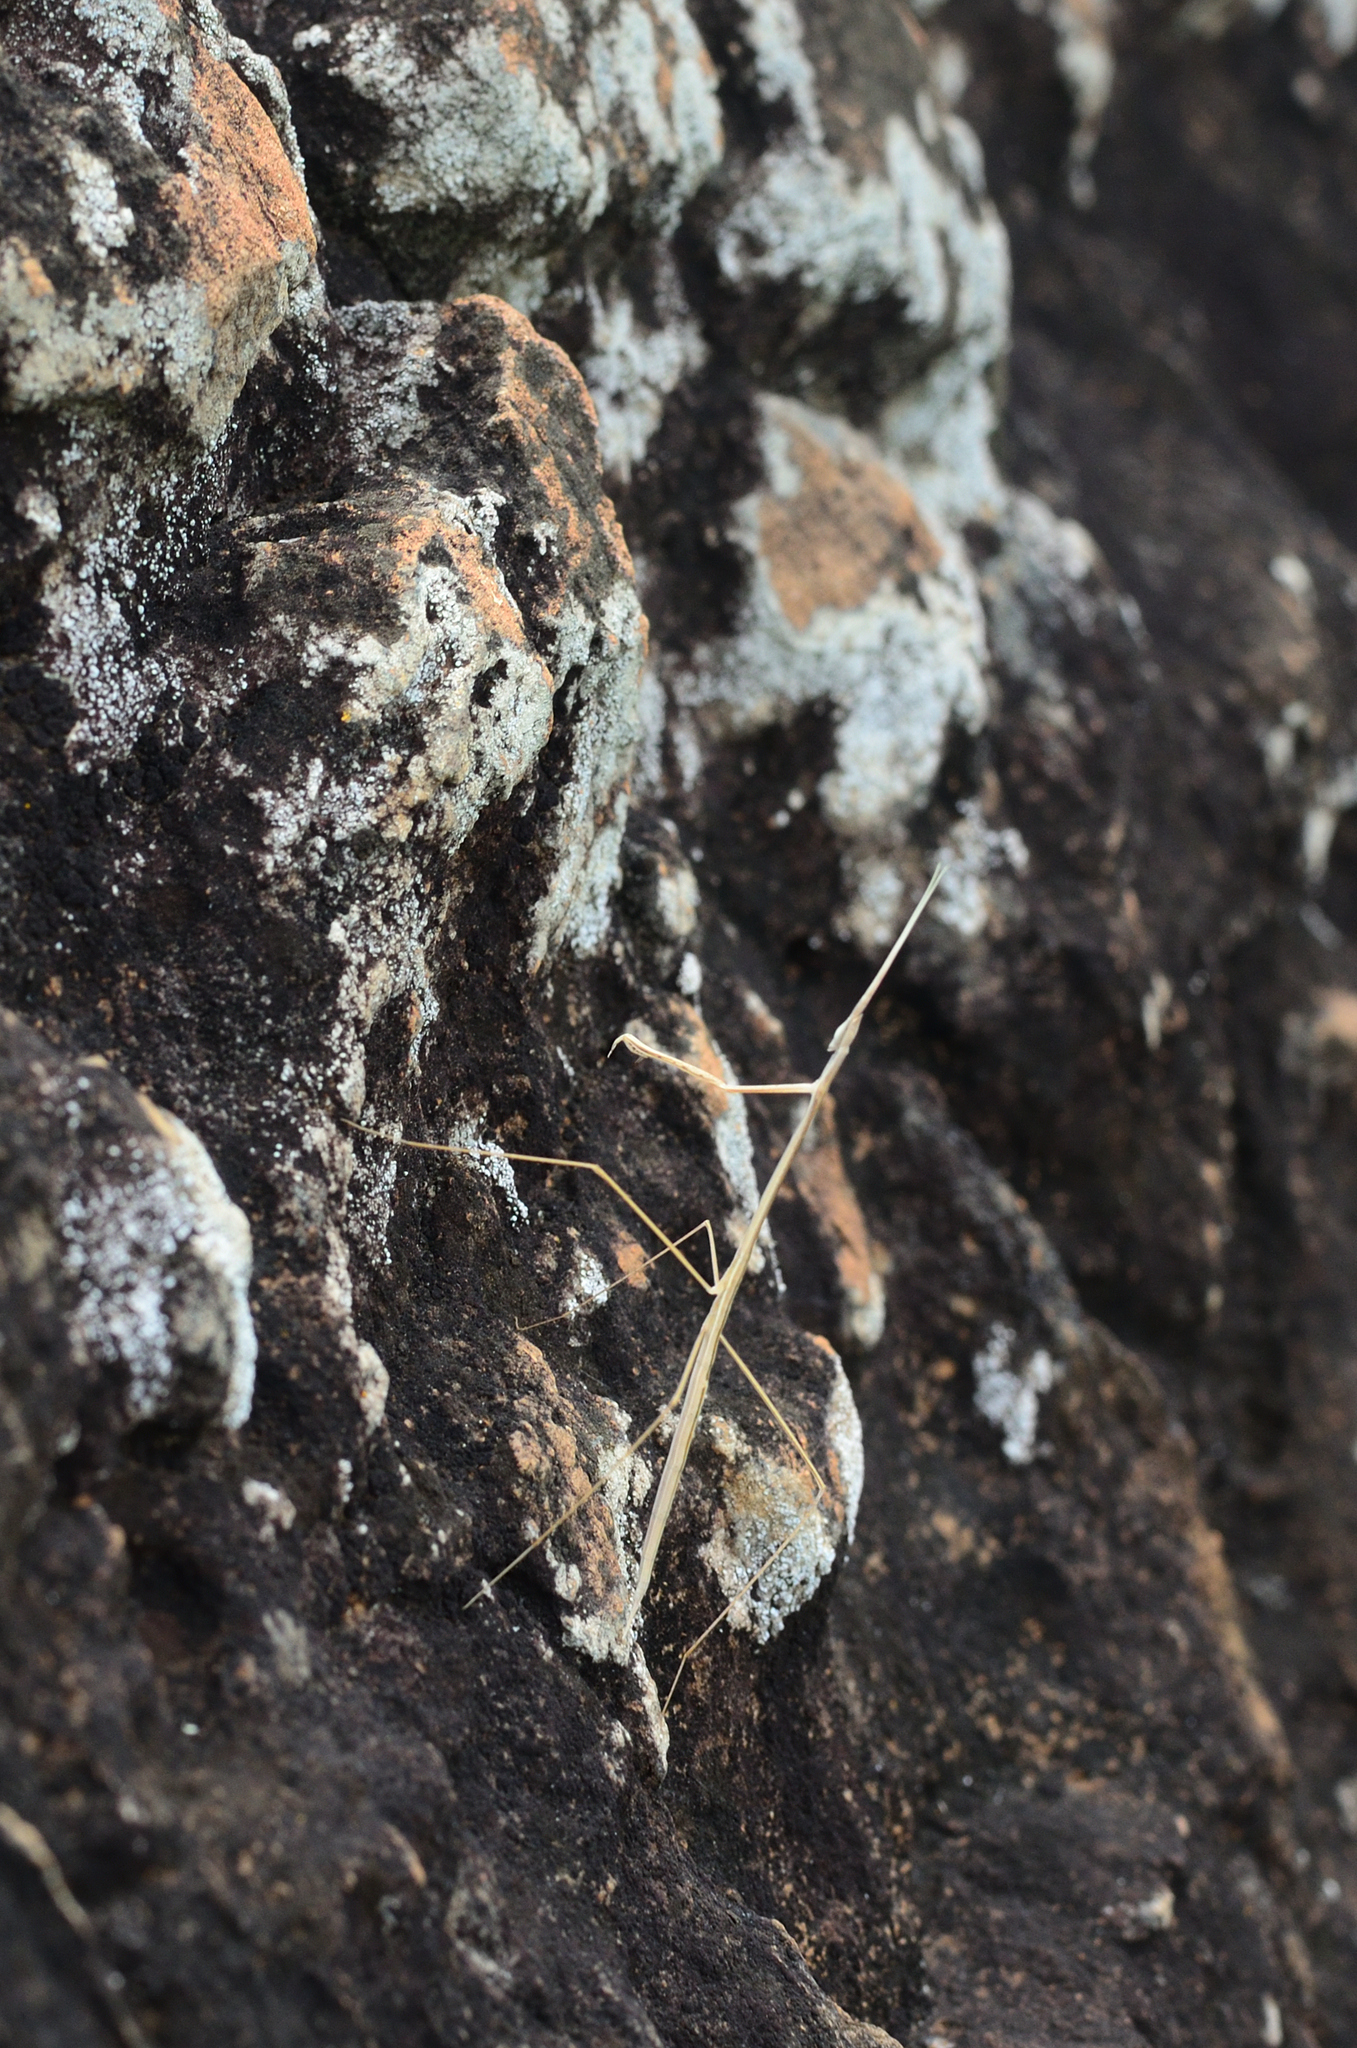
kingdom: Animalia
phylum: Arthropoda
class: Insecta
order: Mantodea
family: Eremiaphilidae
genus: Schizocephala
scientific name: Schizocephala bicornis
